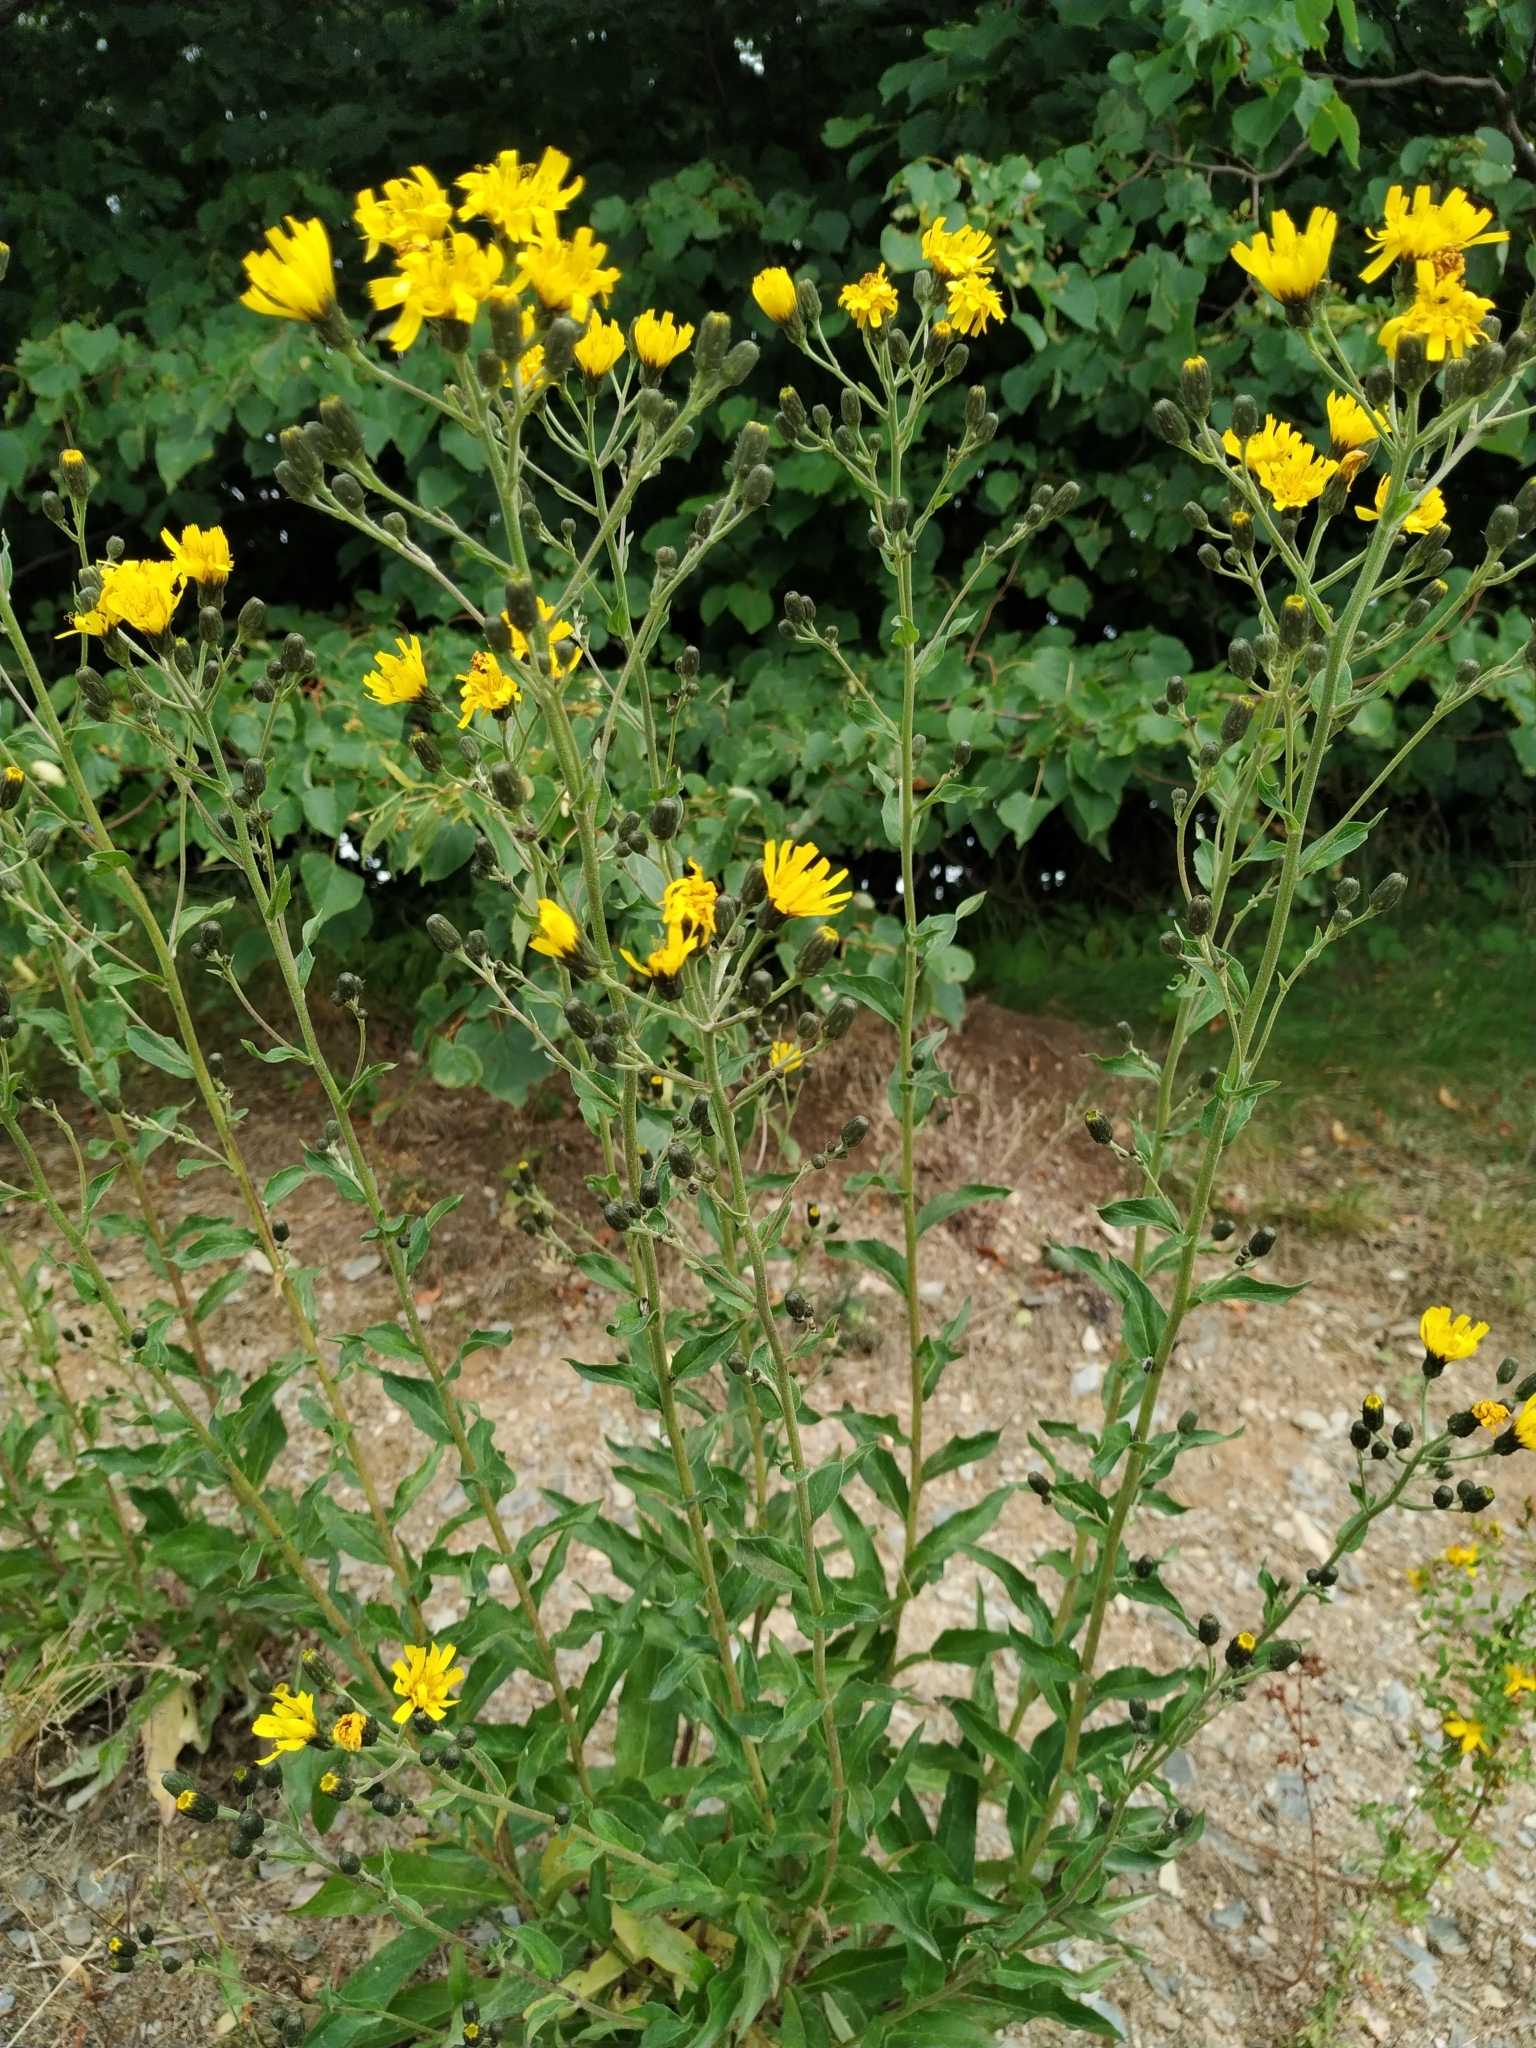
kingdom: Plantae
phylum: Tracheophyta
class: Magnoliopsida
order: Asterales
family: Asteraceae
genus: Hieracium
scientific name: Hieracium sabaudum
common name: New england hawkweed
